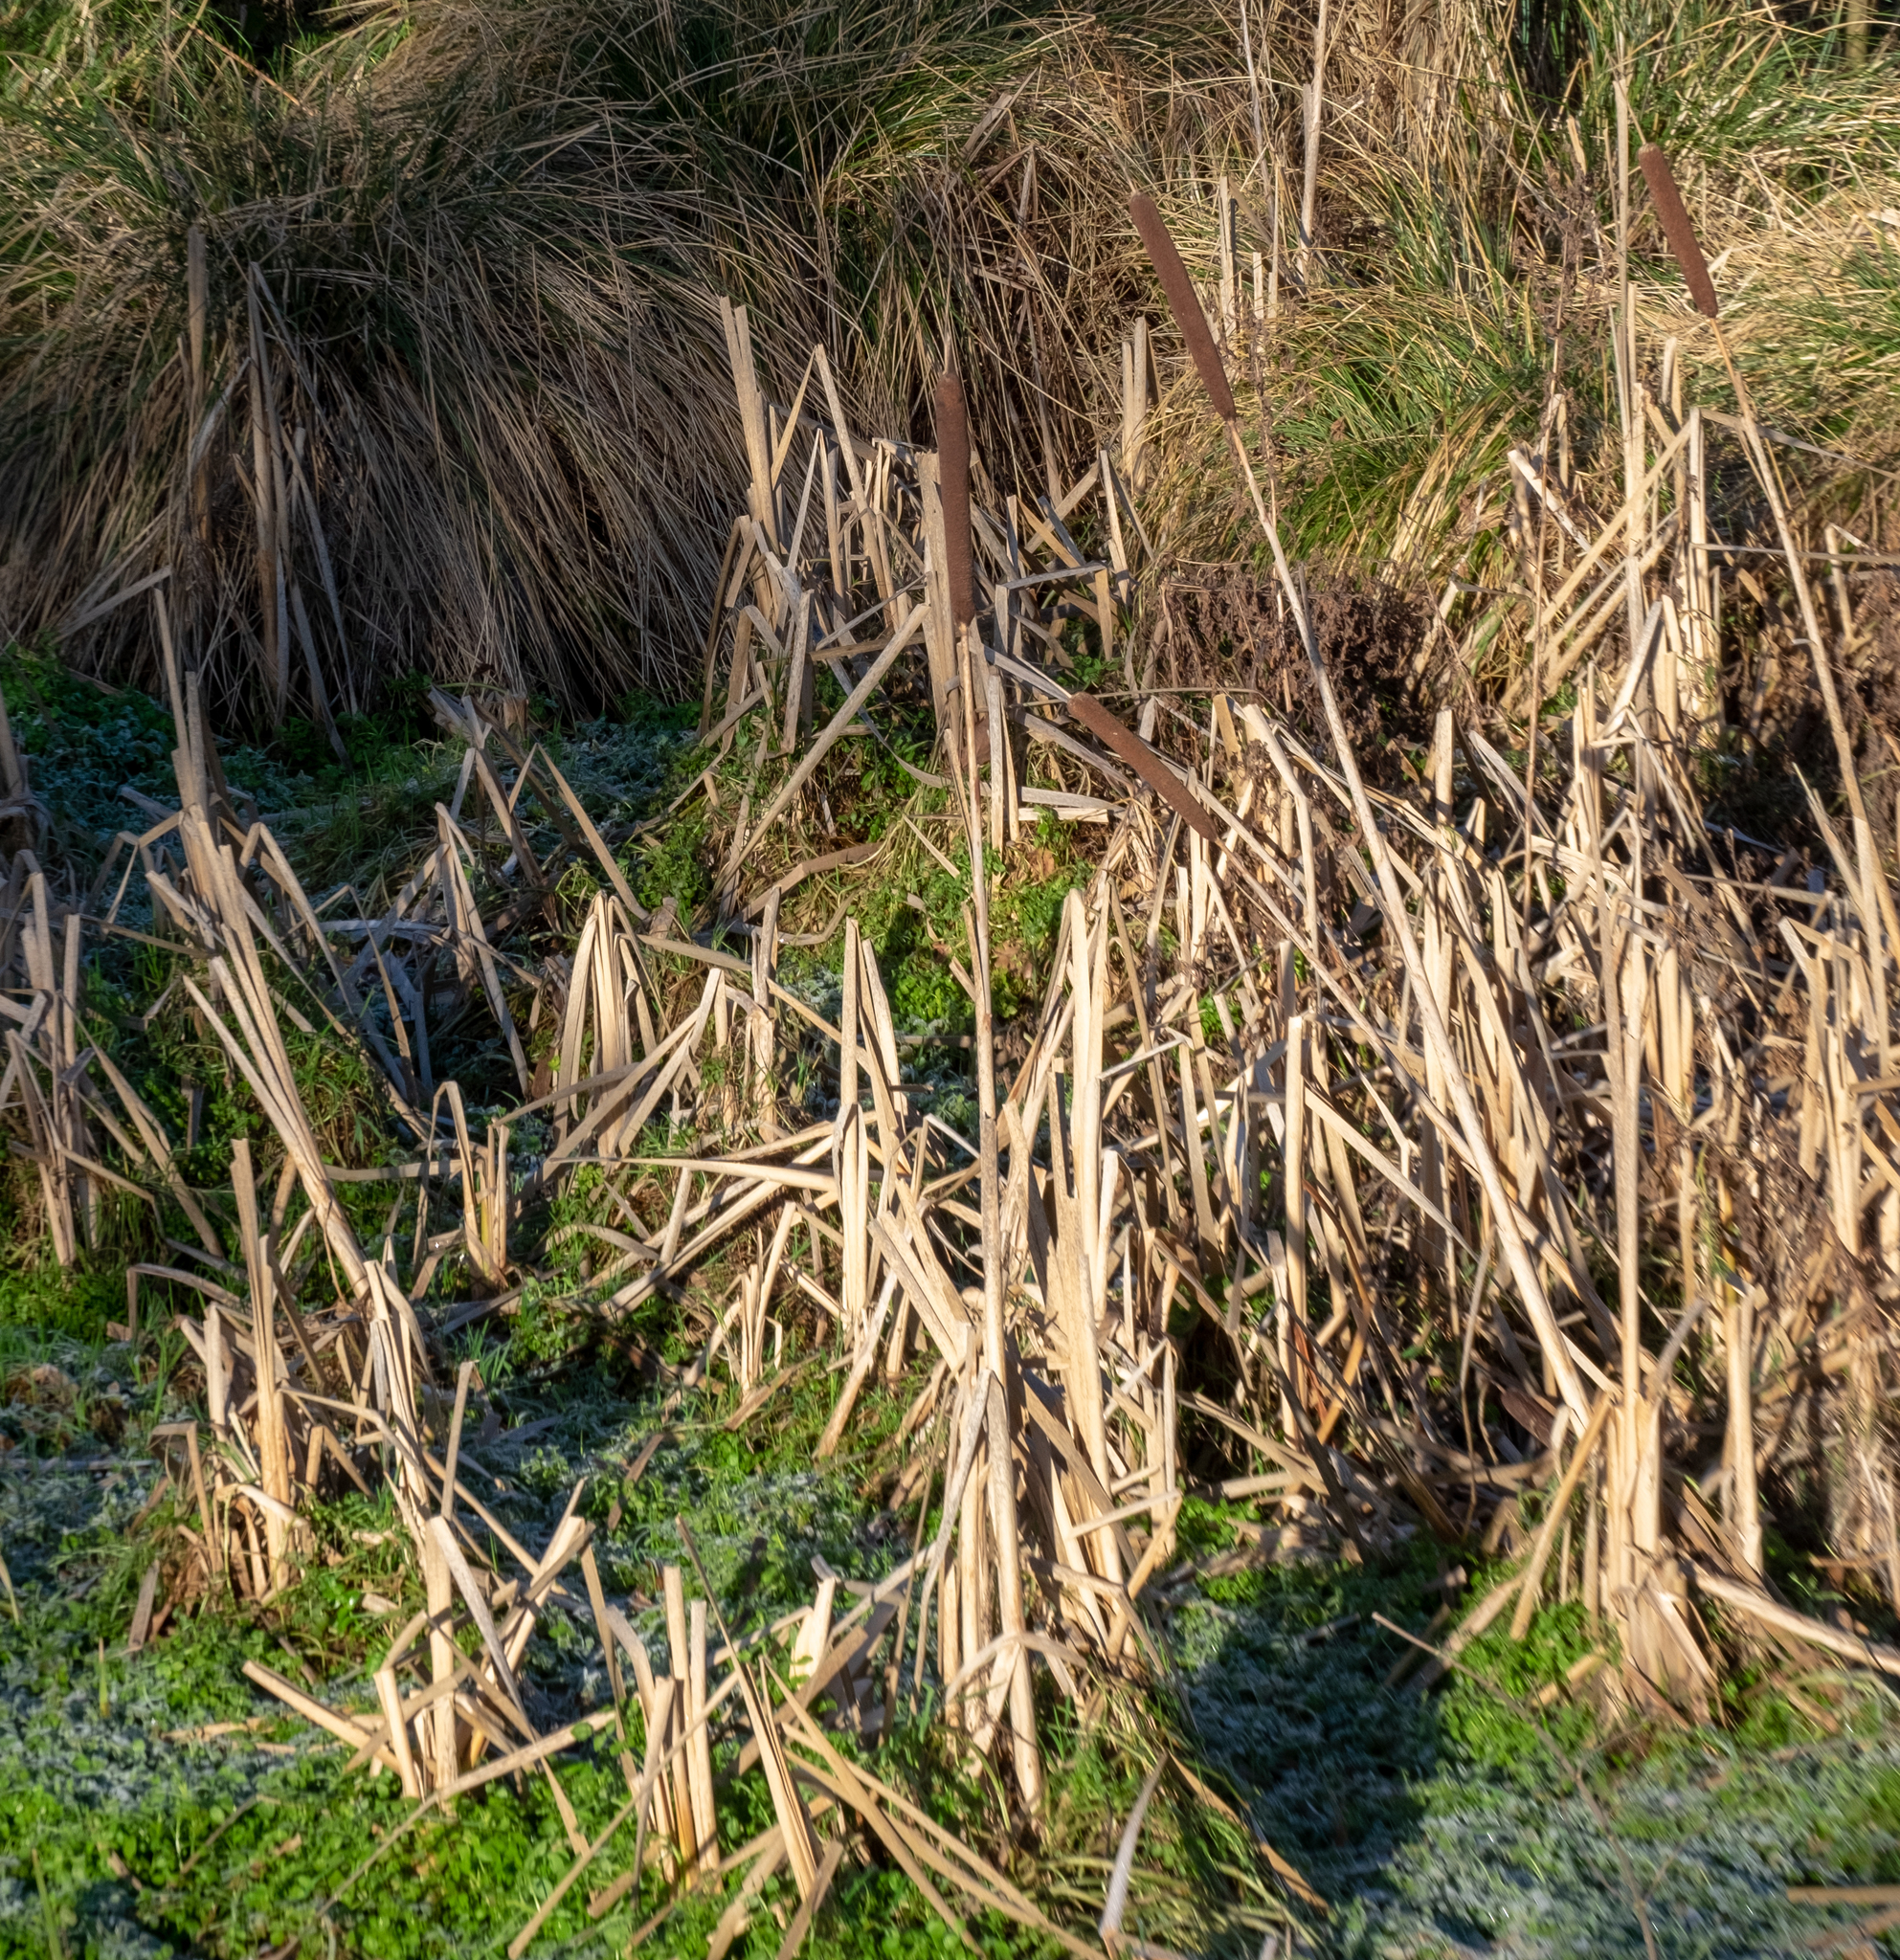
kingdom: Plantae
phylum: Tracheophyta
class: Liliopsida
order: Poales
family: Typhaceae
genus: Typha
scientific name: Typha latifolia
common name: Broadleaf cattail
